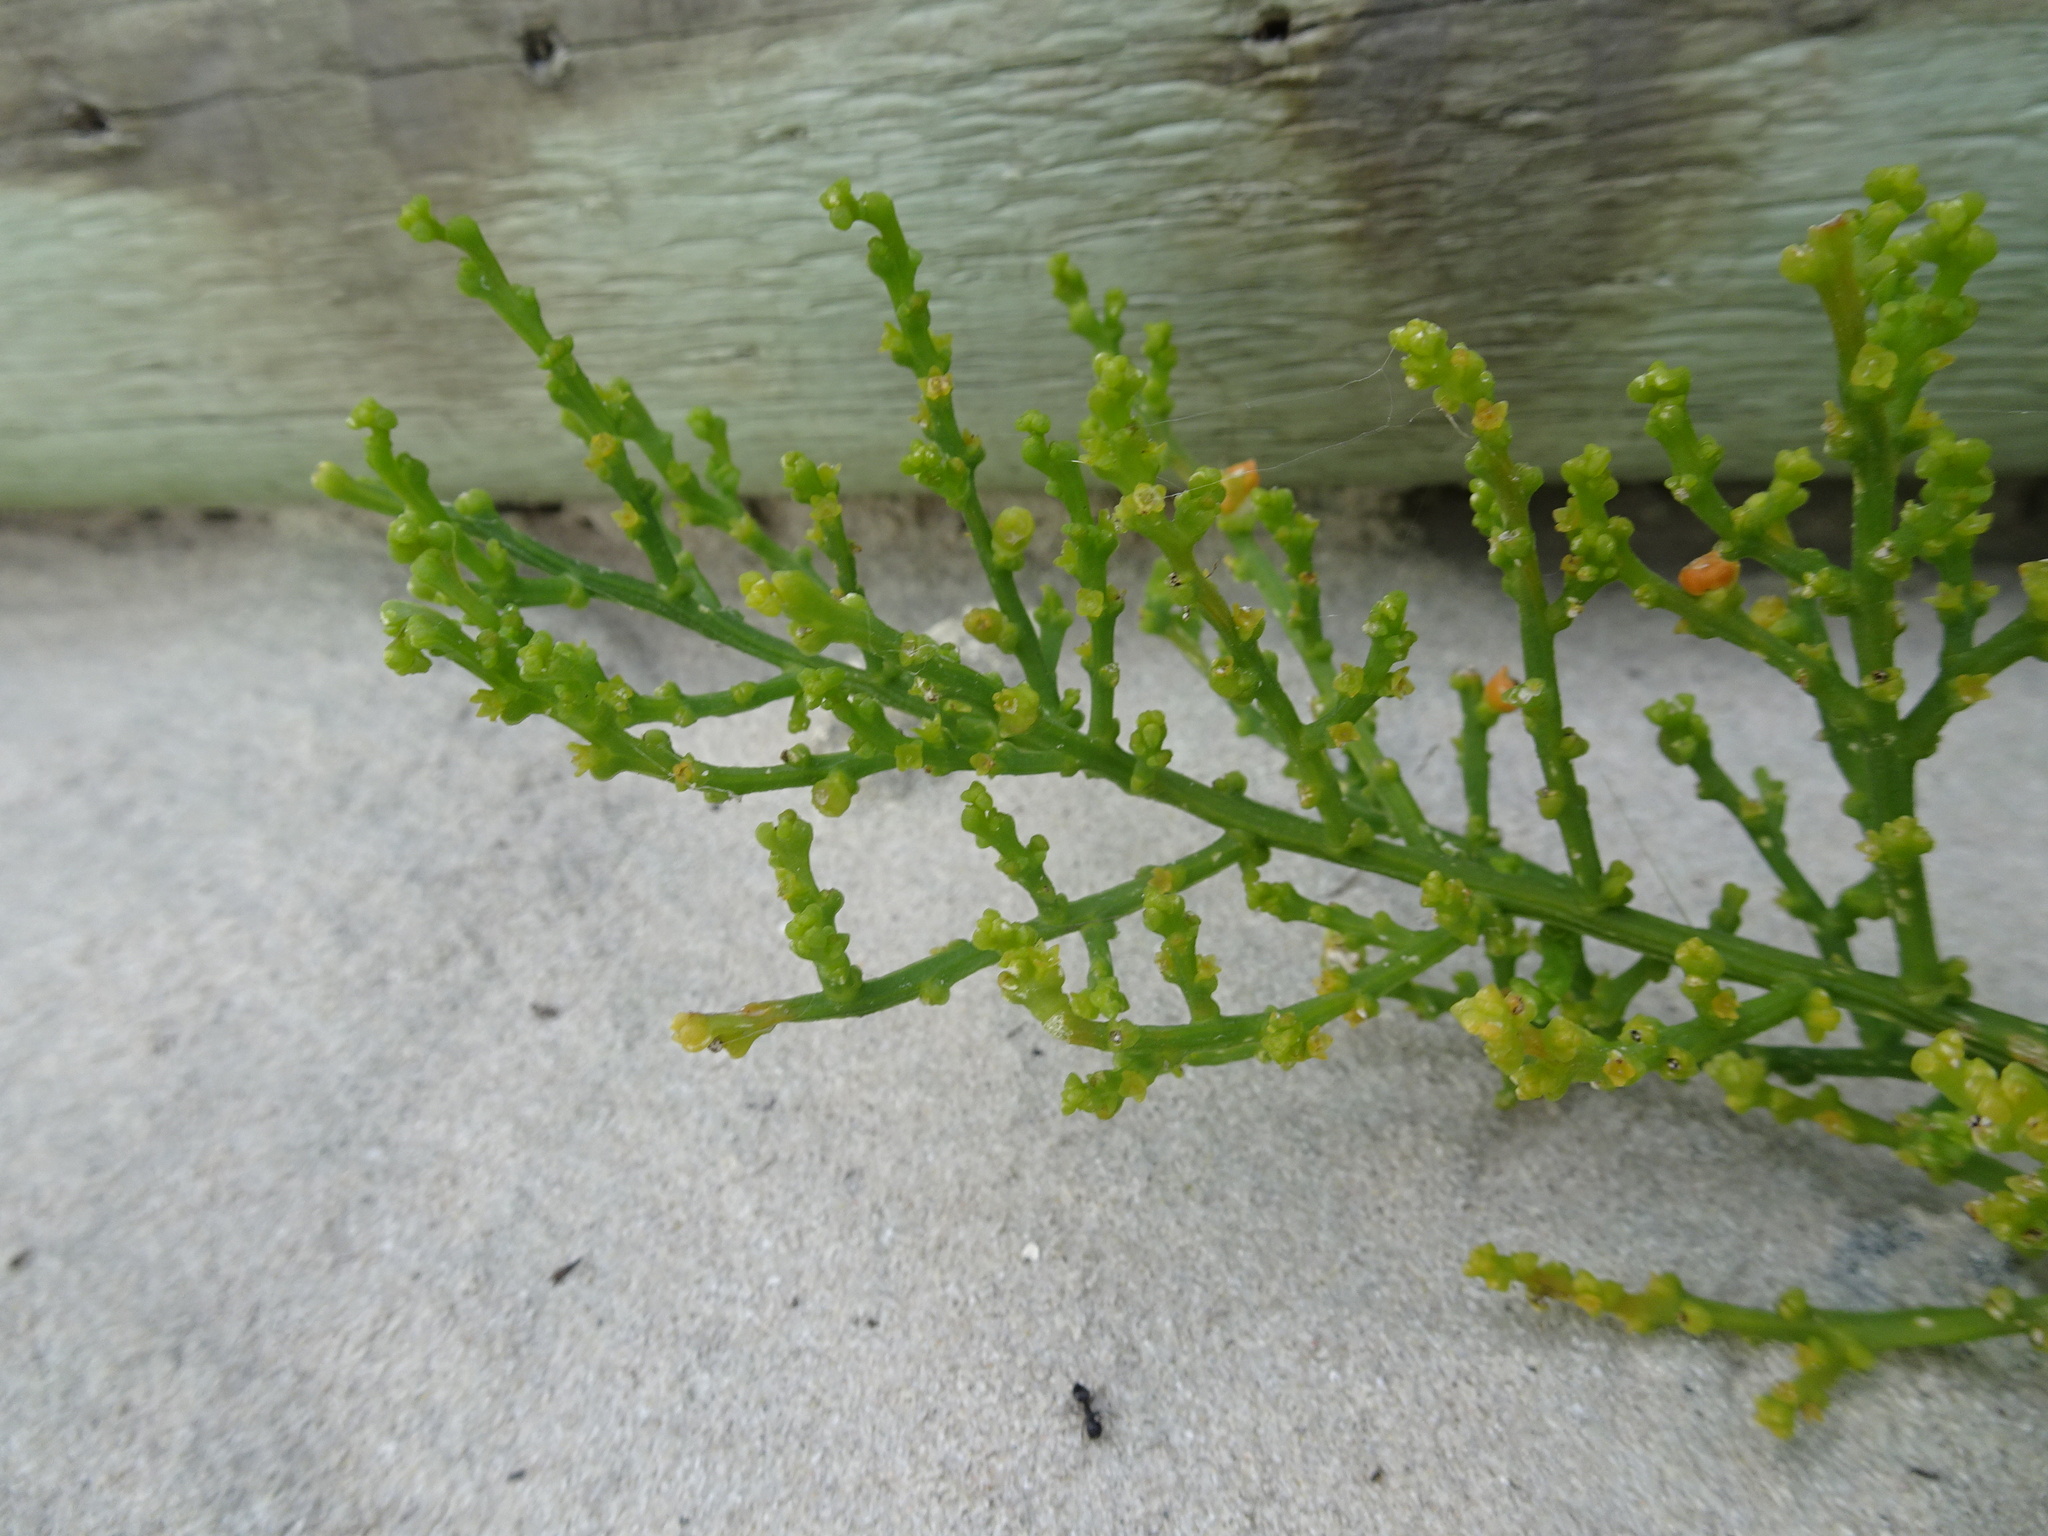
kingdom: Plantae
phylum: Tracheophyta
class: Magnoliopsida
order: Santalales
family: Thesiaceae
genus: Thesium
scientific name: Thesium fragile
